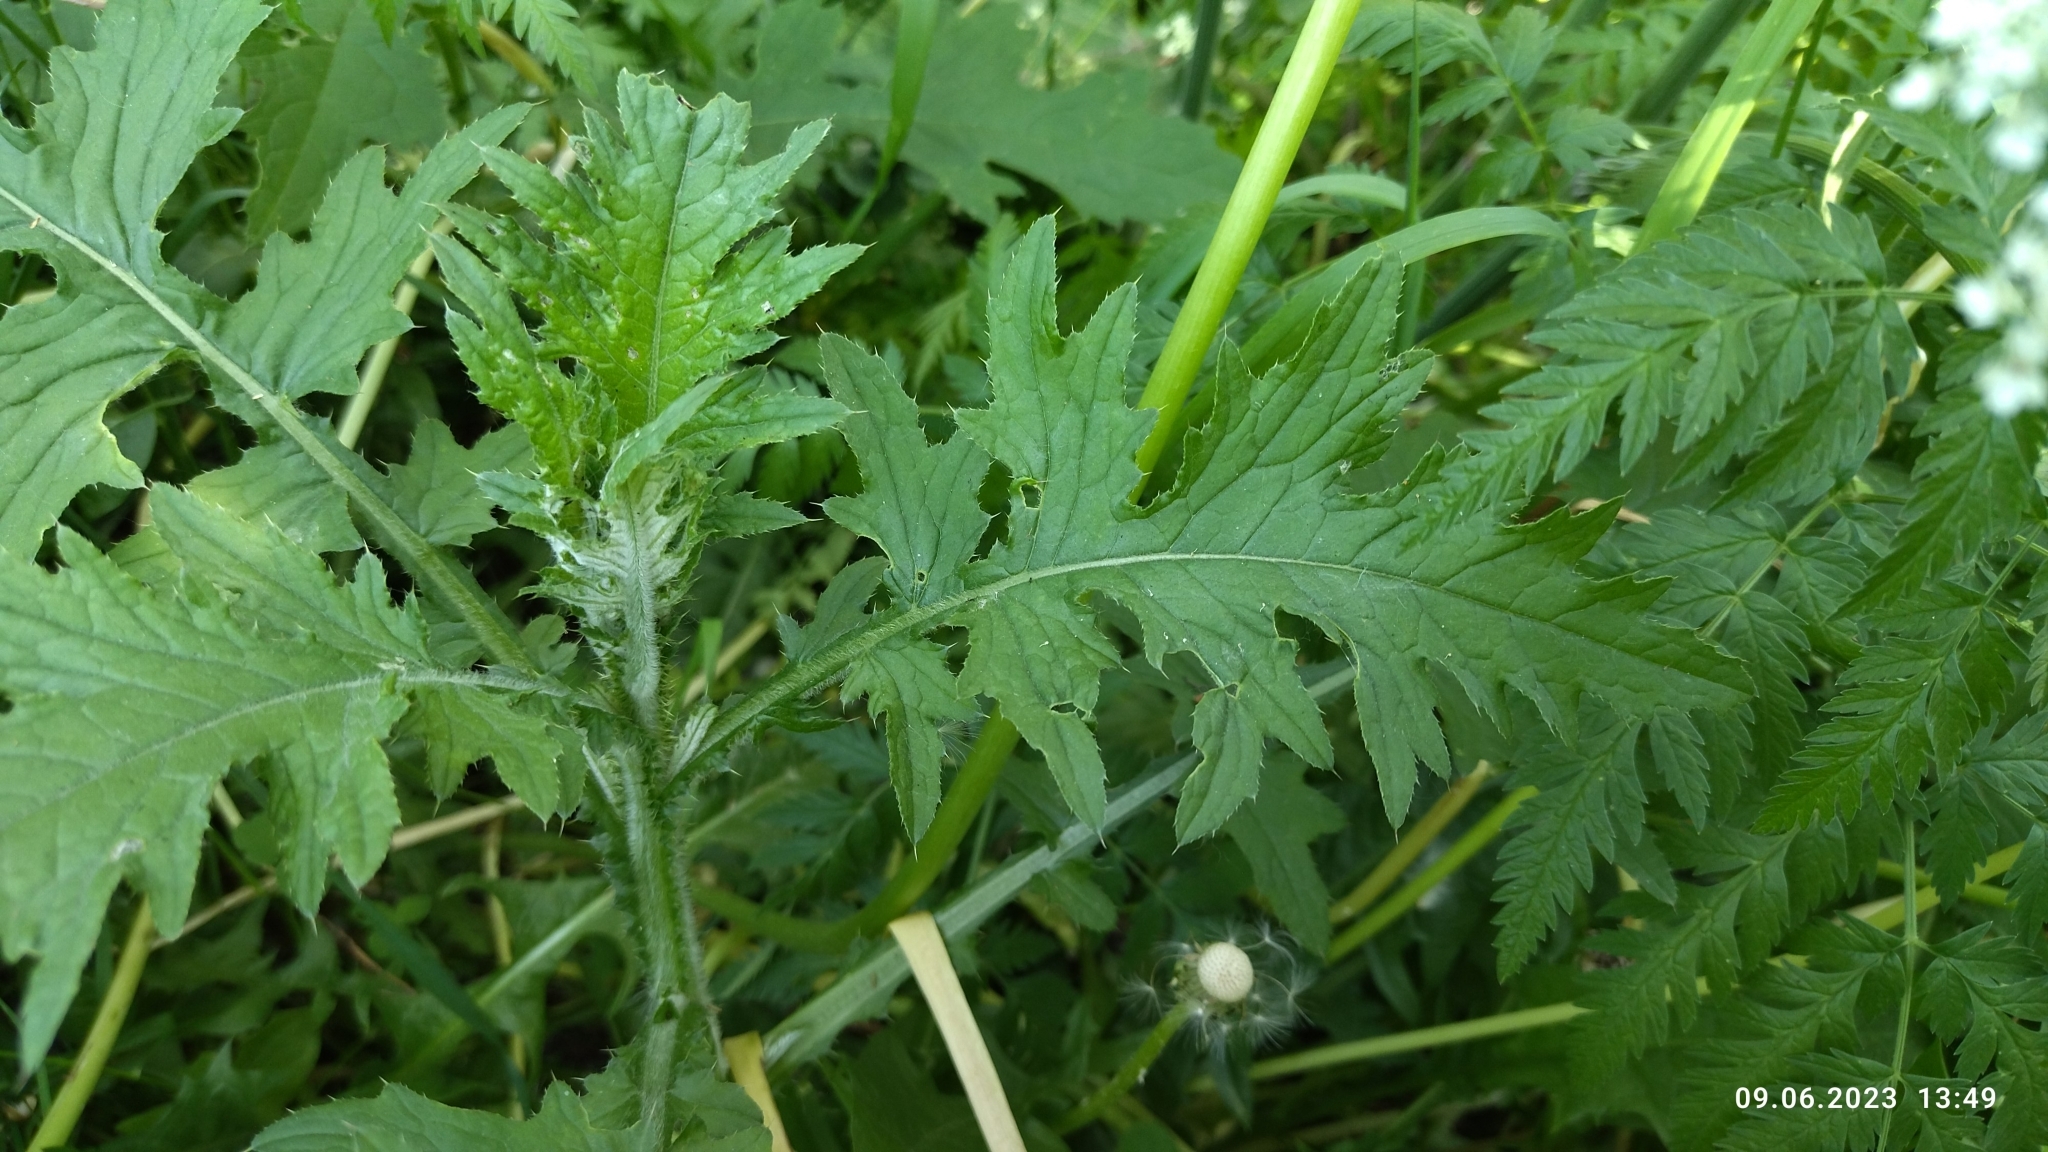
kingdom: Plantae
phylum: Tracheophyta
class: Magnoliopsida
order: Asterales
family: Asteraceae
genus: Carduus
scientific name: Carduus crispus
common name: Welted thistle
